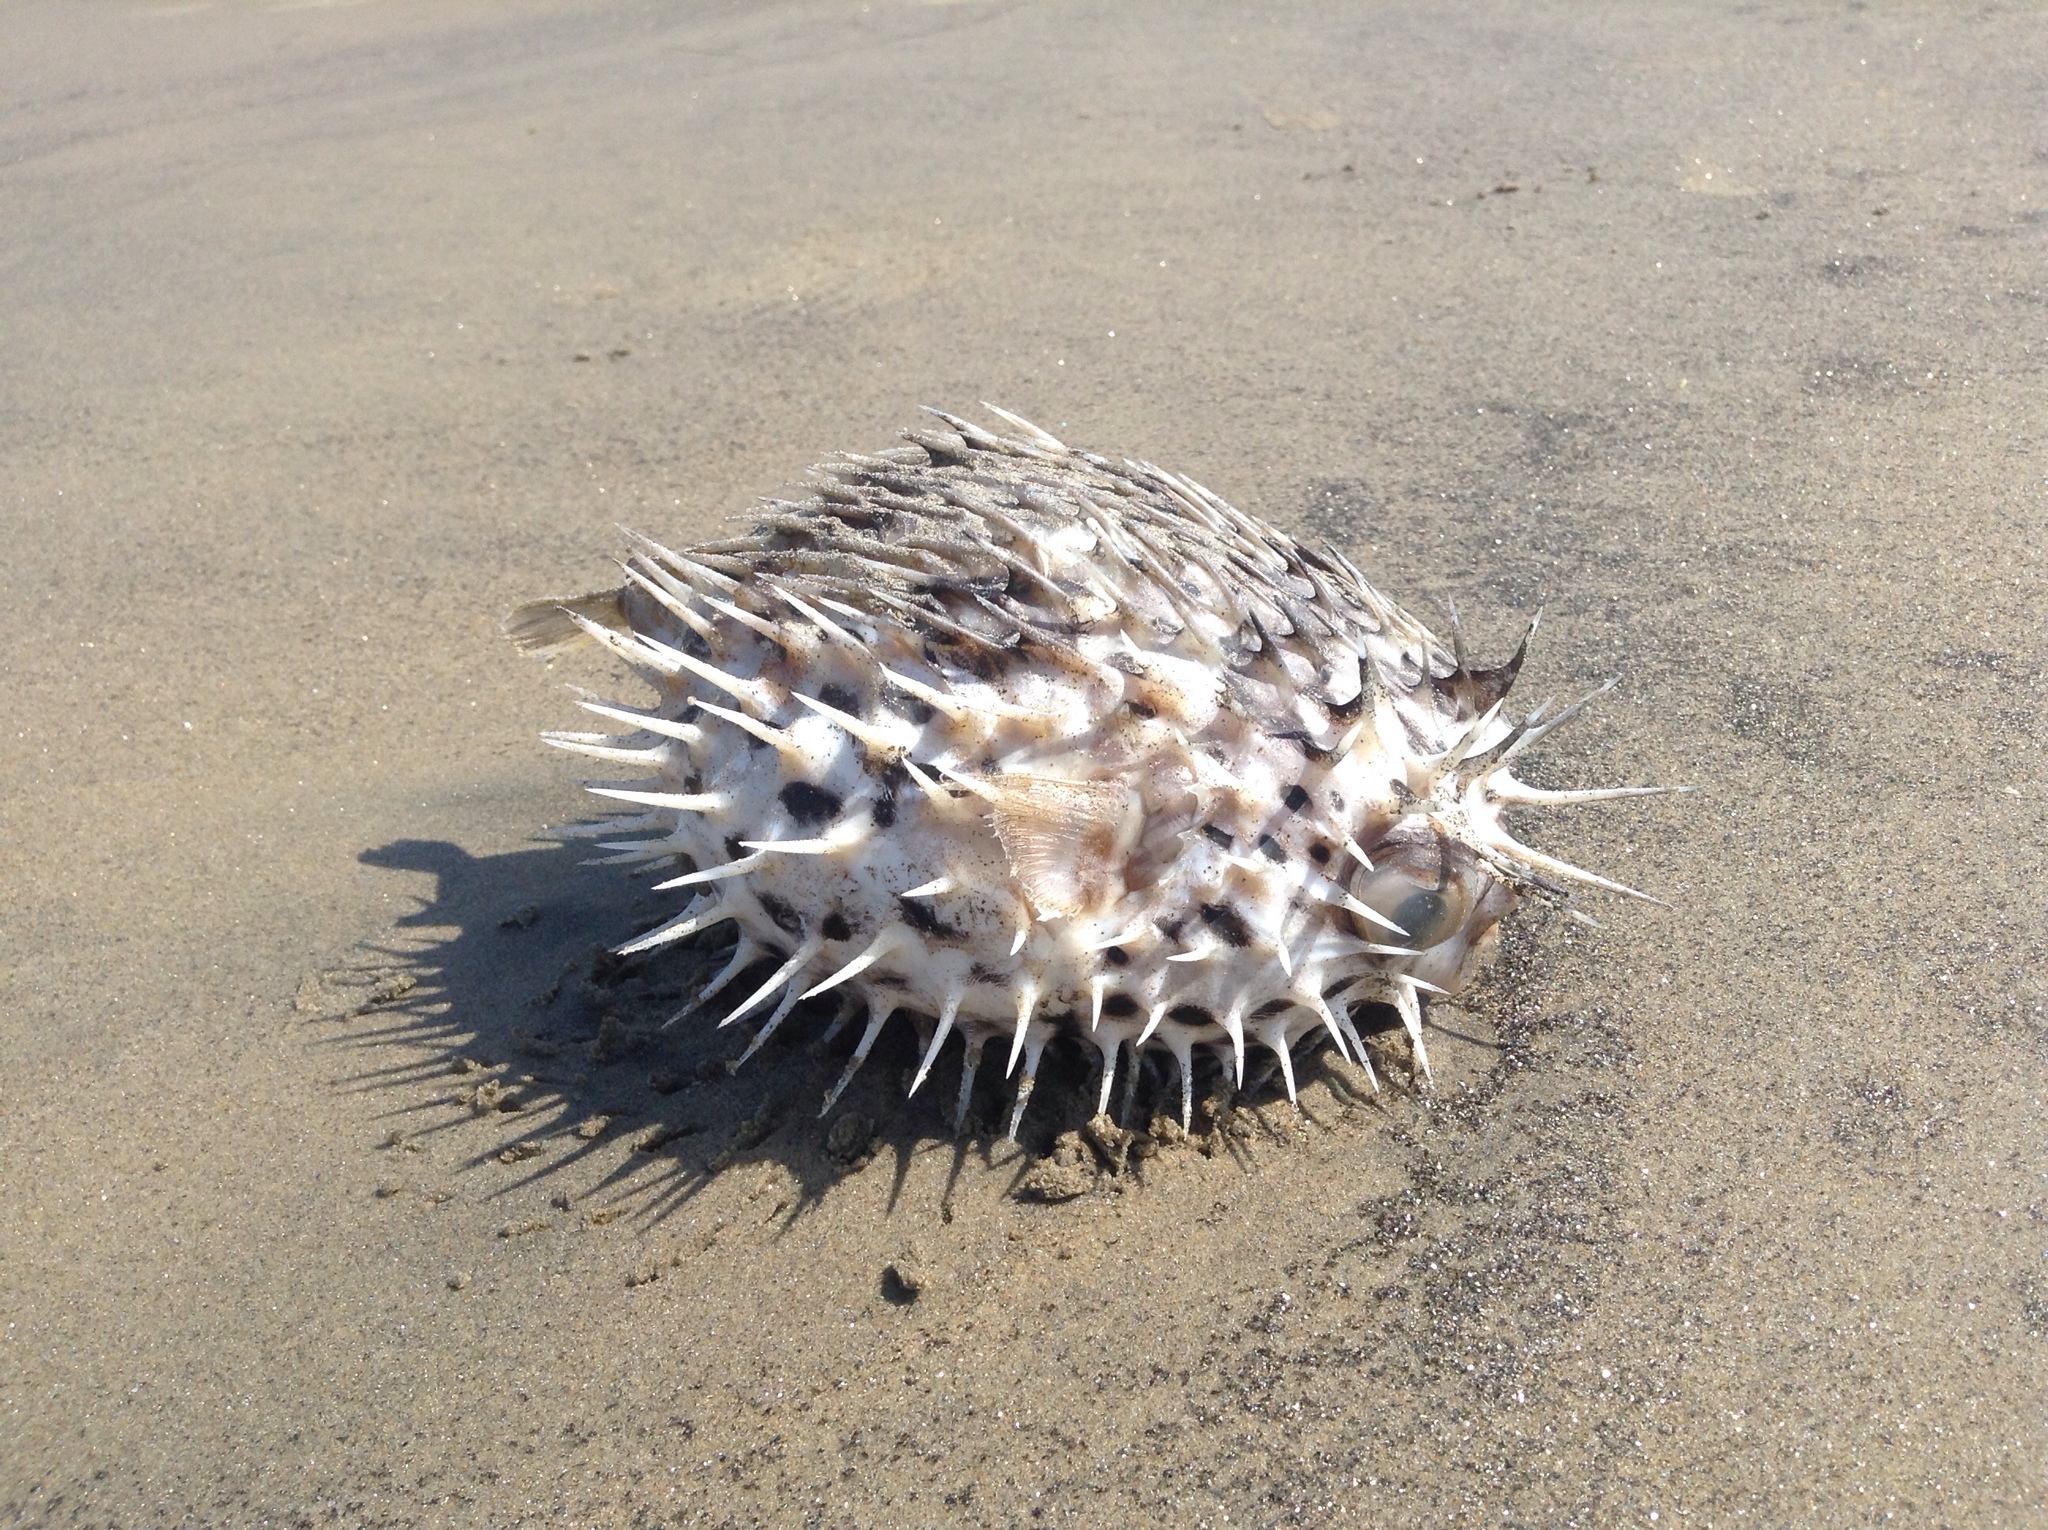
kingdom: Animalia
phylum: Chordata
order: Tetraodontiformes
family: Diodontidae
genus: Diodon
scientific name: Diodon holocanthus
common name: Balloonfish
